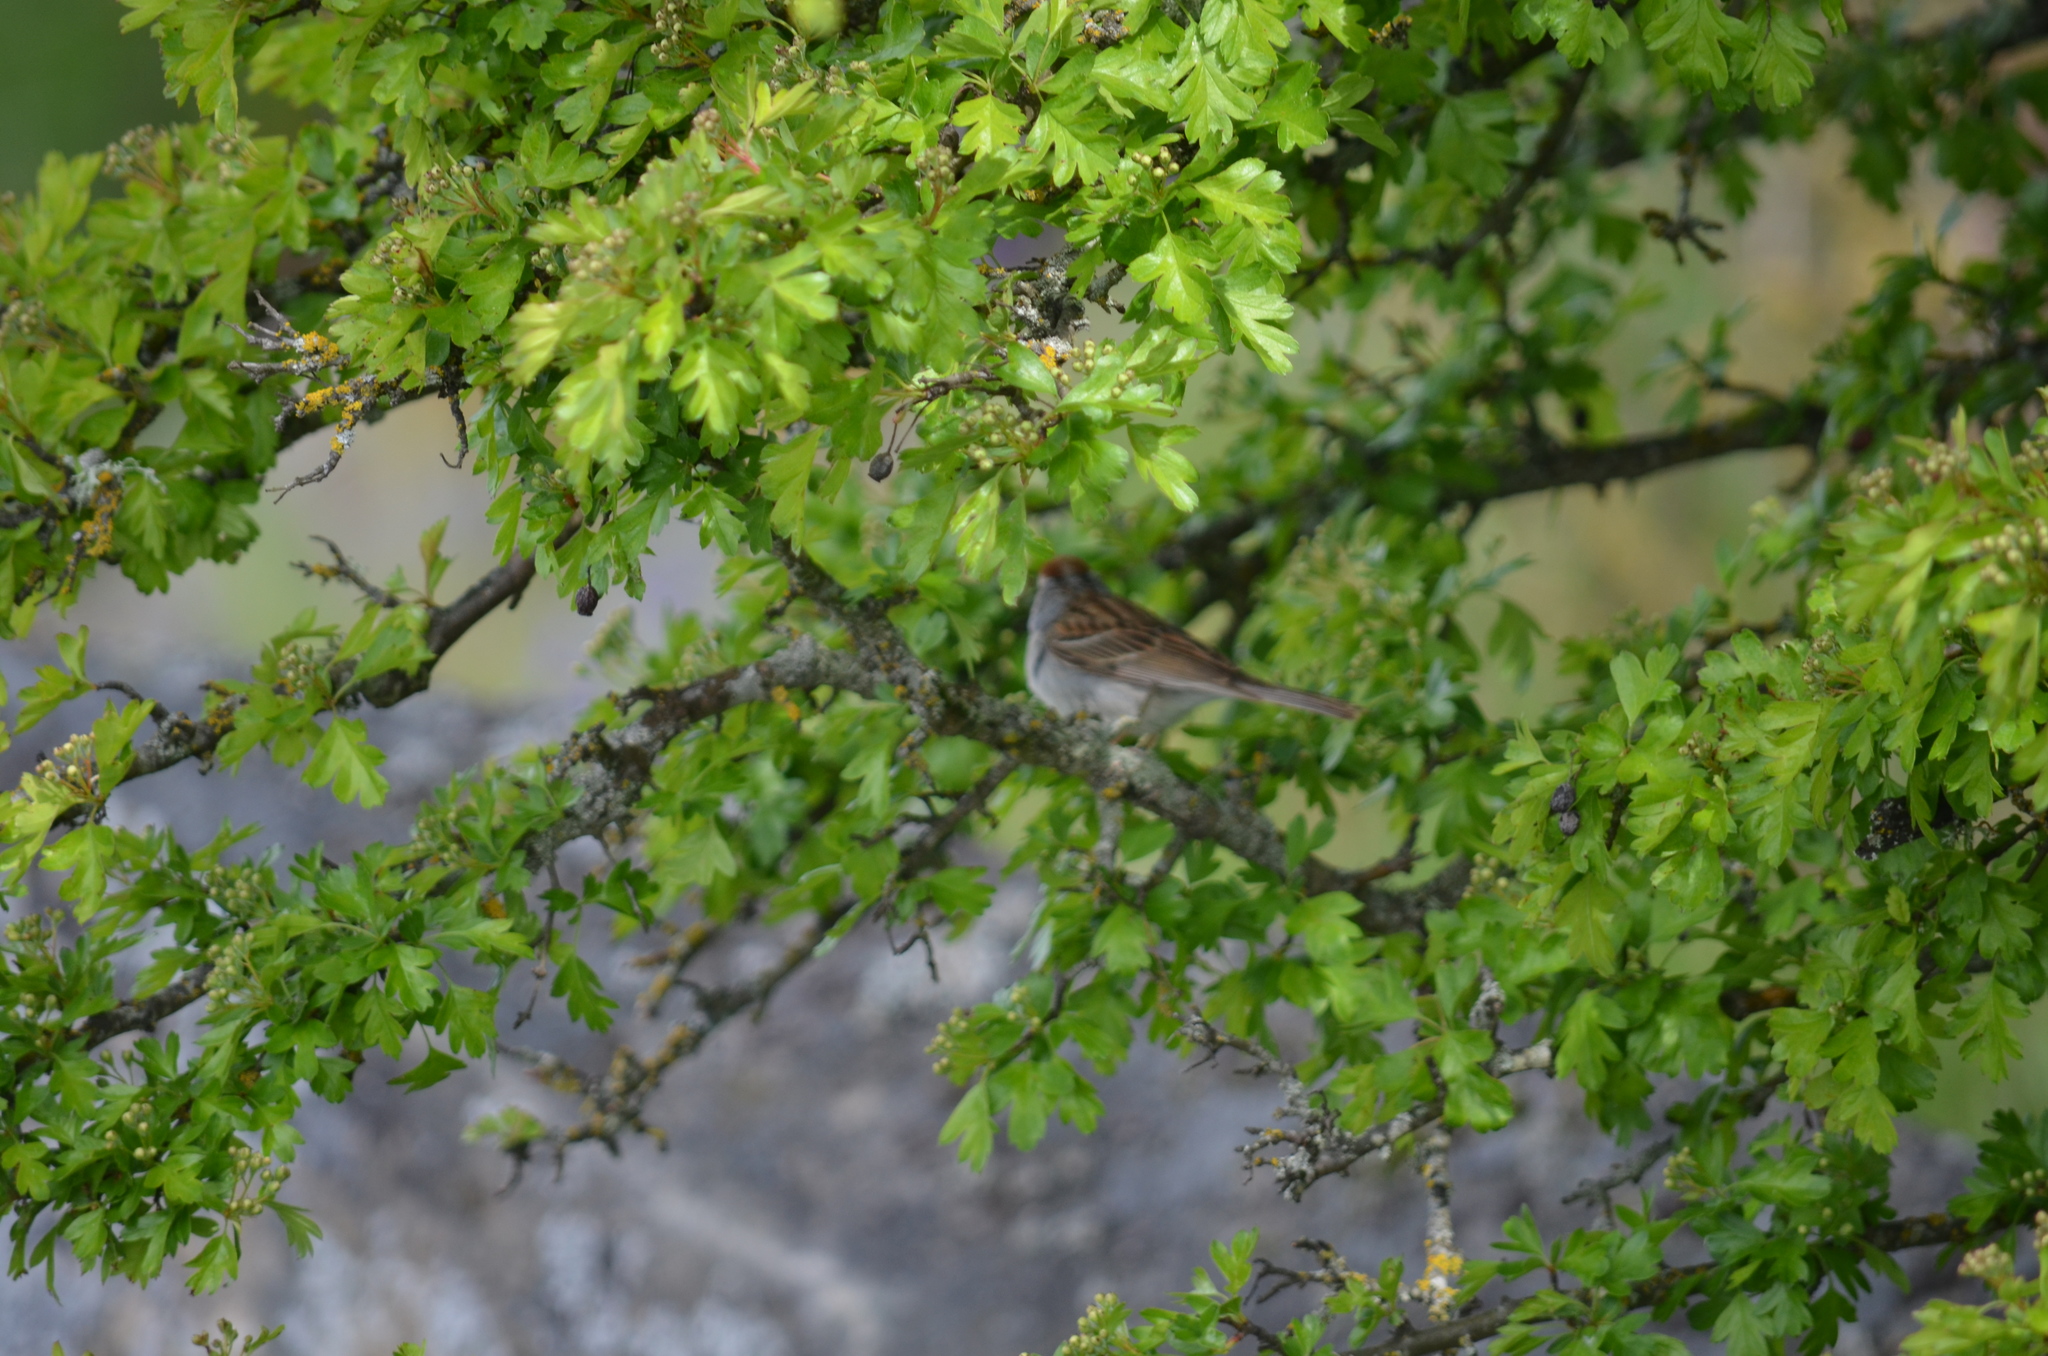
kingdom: Animalia
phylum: Chordata
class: Aves
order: Passeriformes
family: Passerellidae
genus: Spizella
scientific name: Spizella passerina
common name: Chipping sparrow
